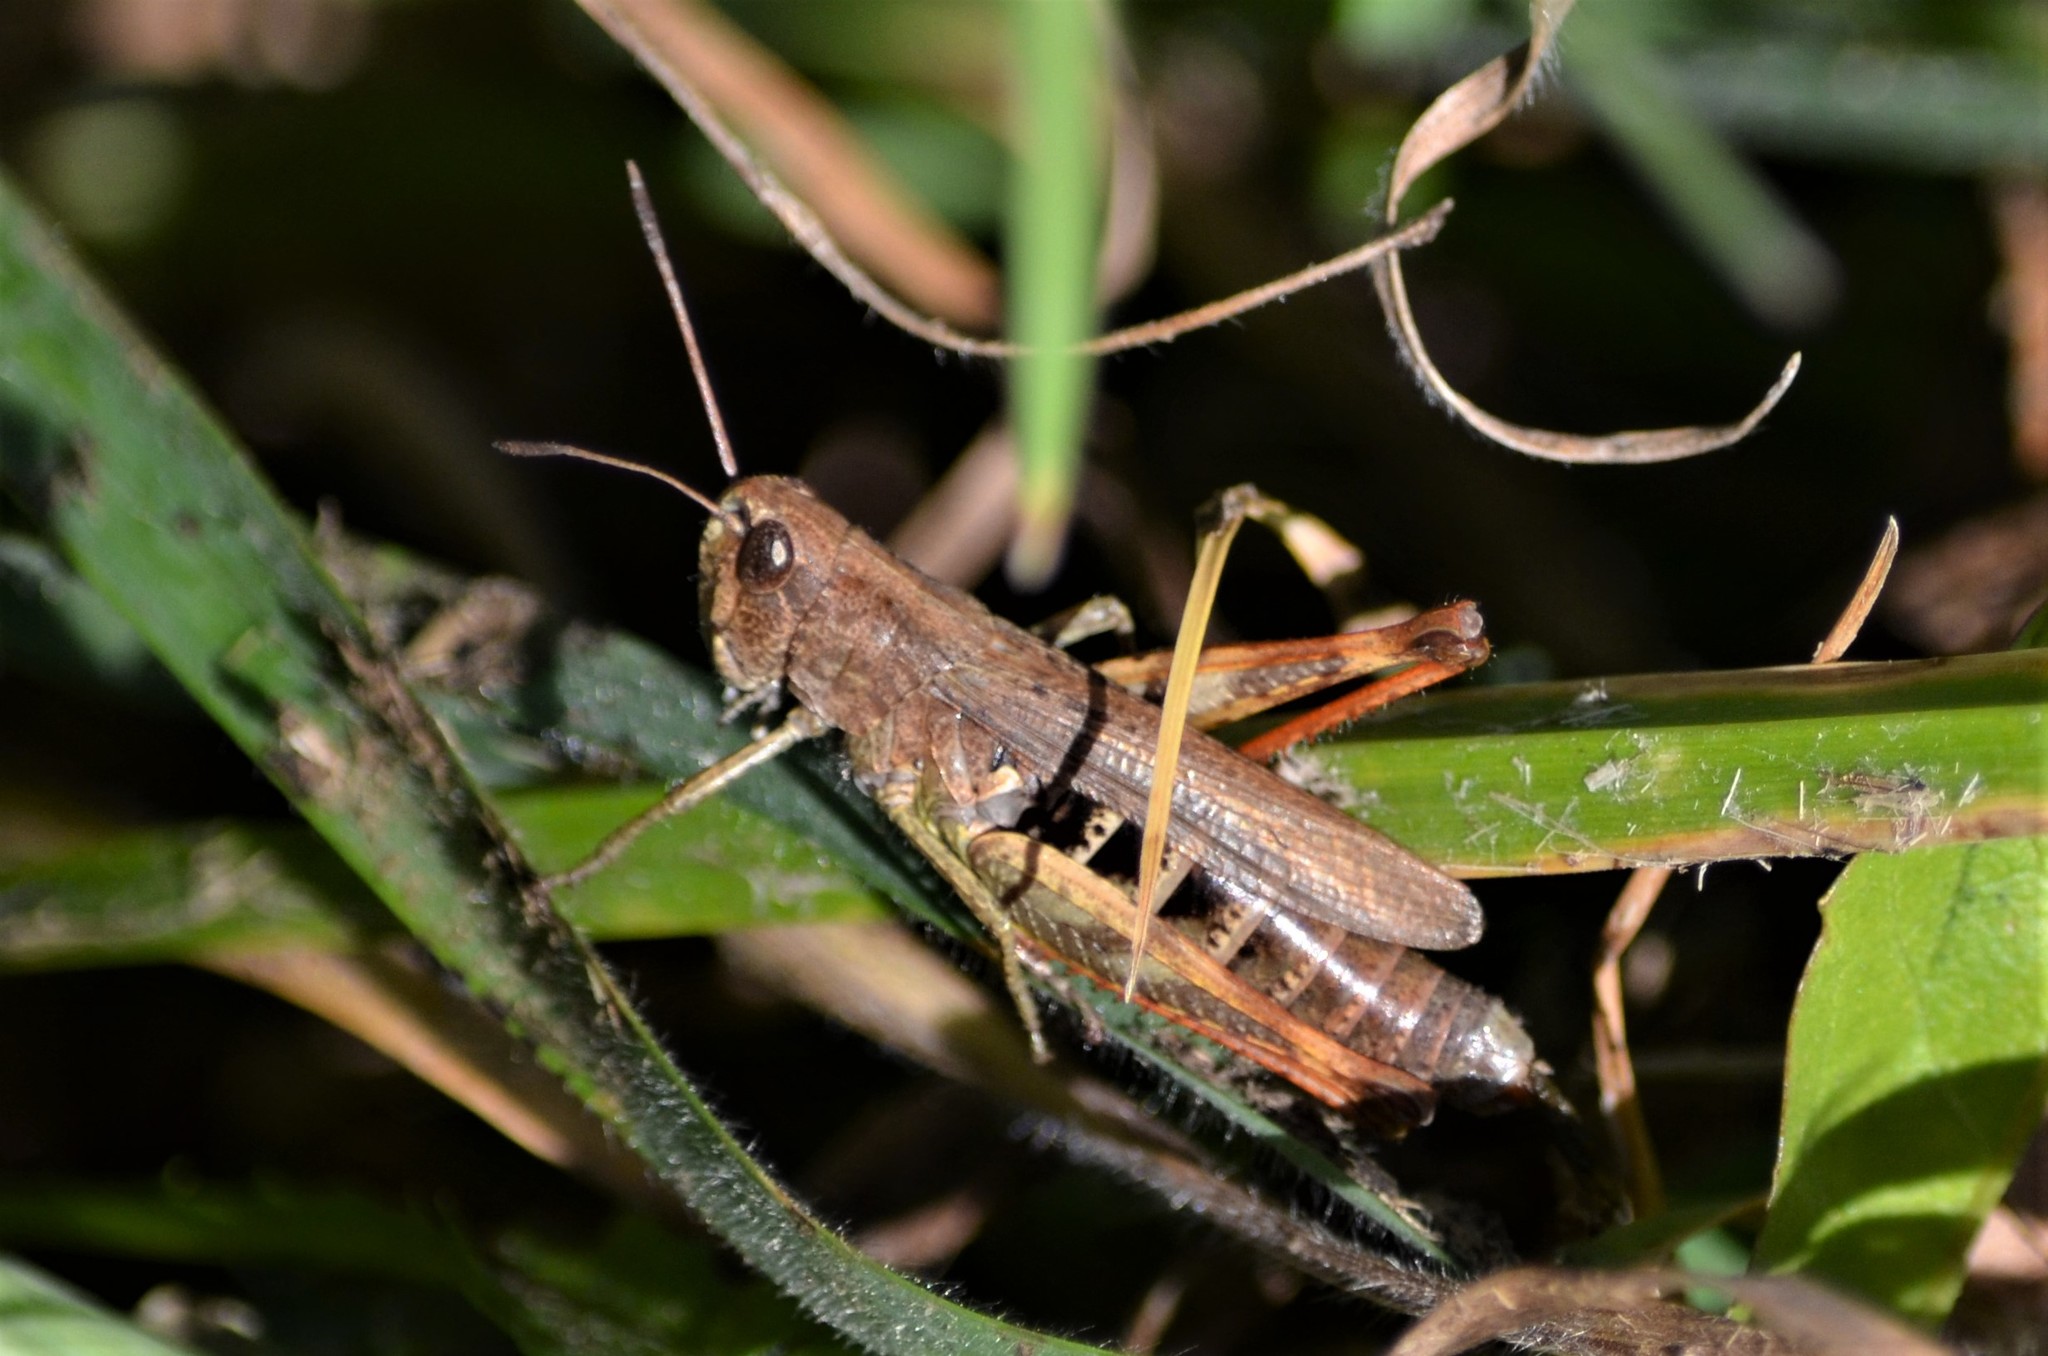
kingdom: Animalia
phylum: Arthropoda
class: Insecta
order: Orthoptera
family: Acrididae
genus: Gomphocerippus
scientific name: Gomphocerippus rufus
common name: Rufous grasshopper
